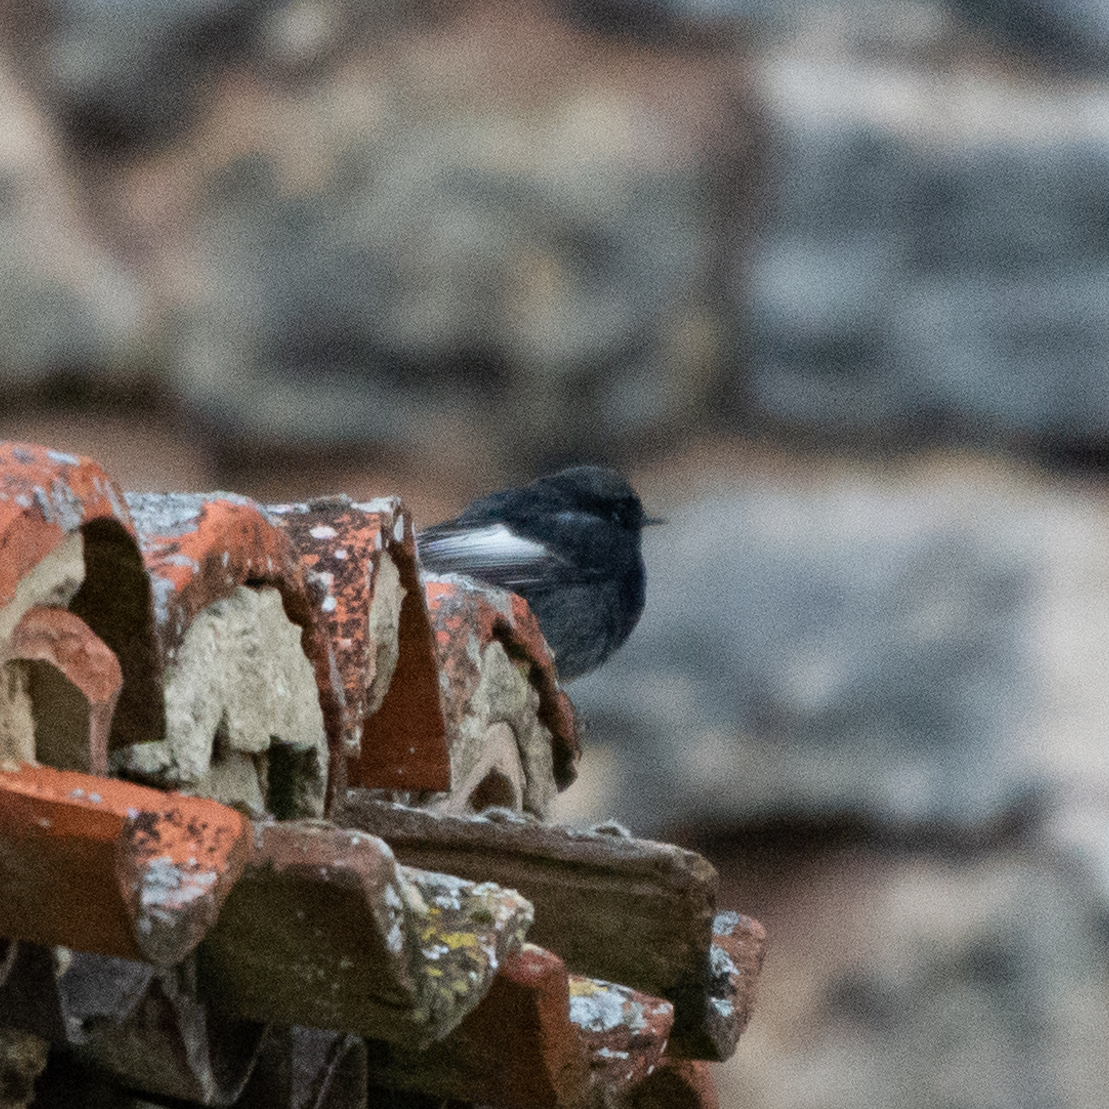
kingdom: Animalia
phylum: Chordata
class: Aves
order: Passeriformes
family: Muscicapidae
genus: Phoenicurus
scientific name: Phoenicurus ochruros
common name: Black redstart
